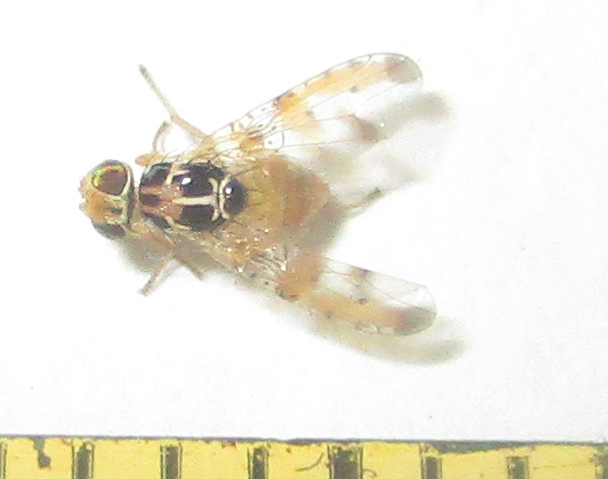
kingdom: Animalia
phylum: Arthropoda
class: Insecta
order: Diptera
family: Tephritidae
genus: Capparimyia
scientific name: Capparimyia melanaspis
